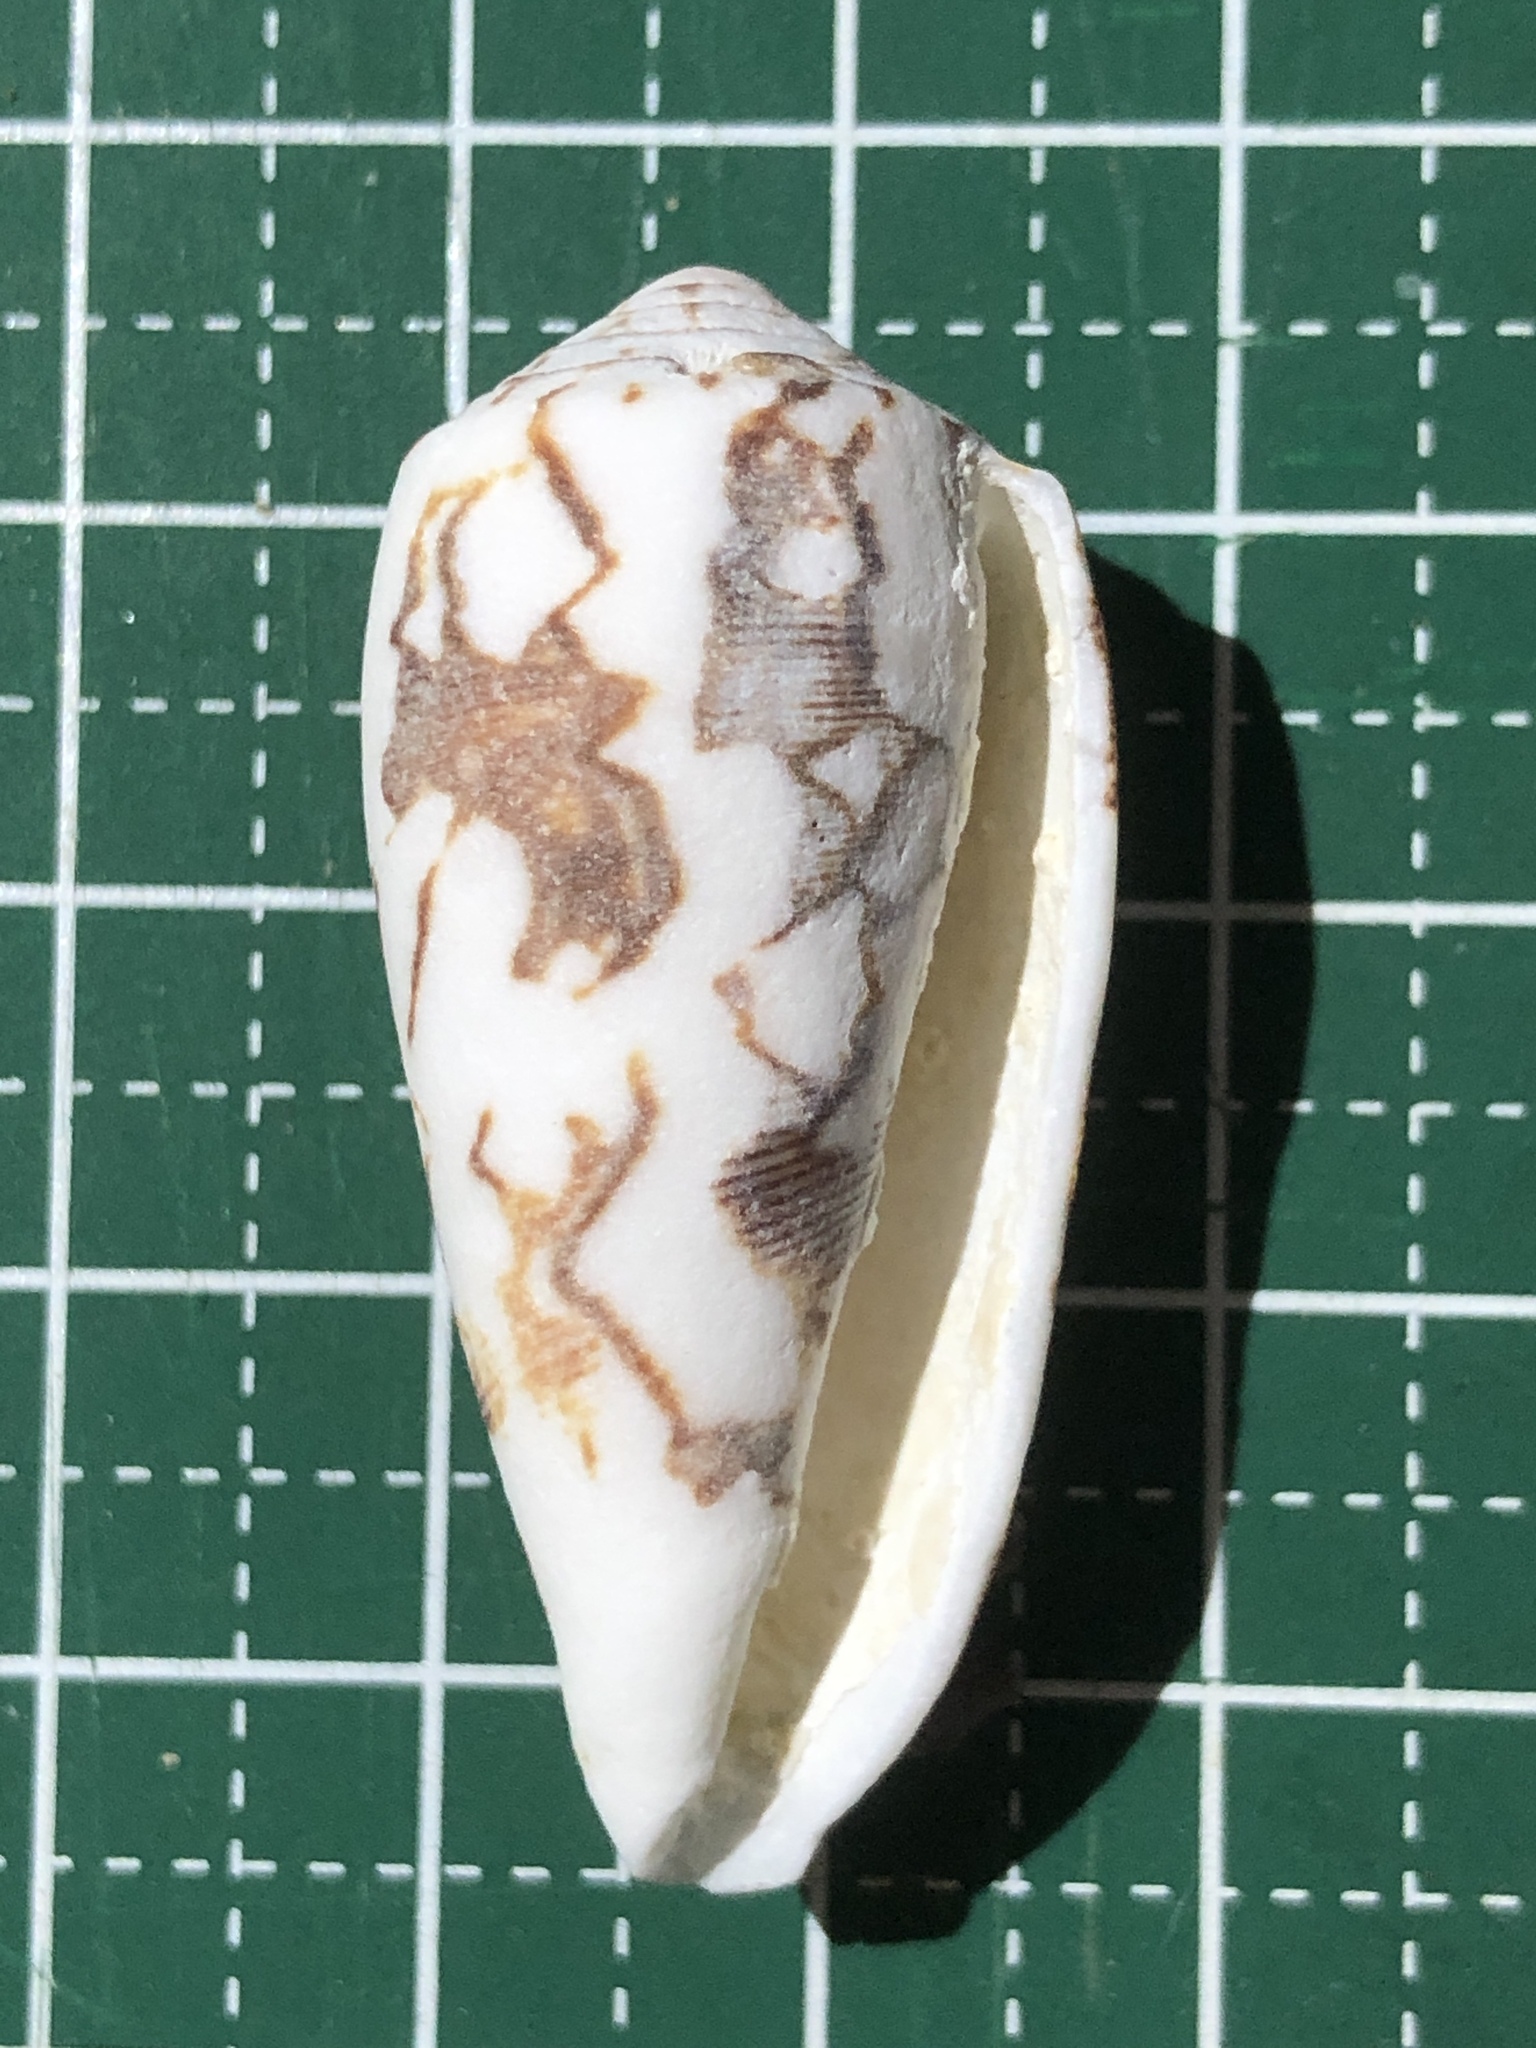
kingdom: Animalia
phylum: Mollusca
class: Gastropoda
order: Neogastropoda
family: Conidae
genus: Conus
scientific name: Conus striatus
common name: Striated cone
